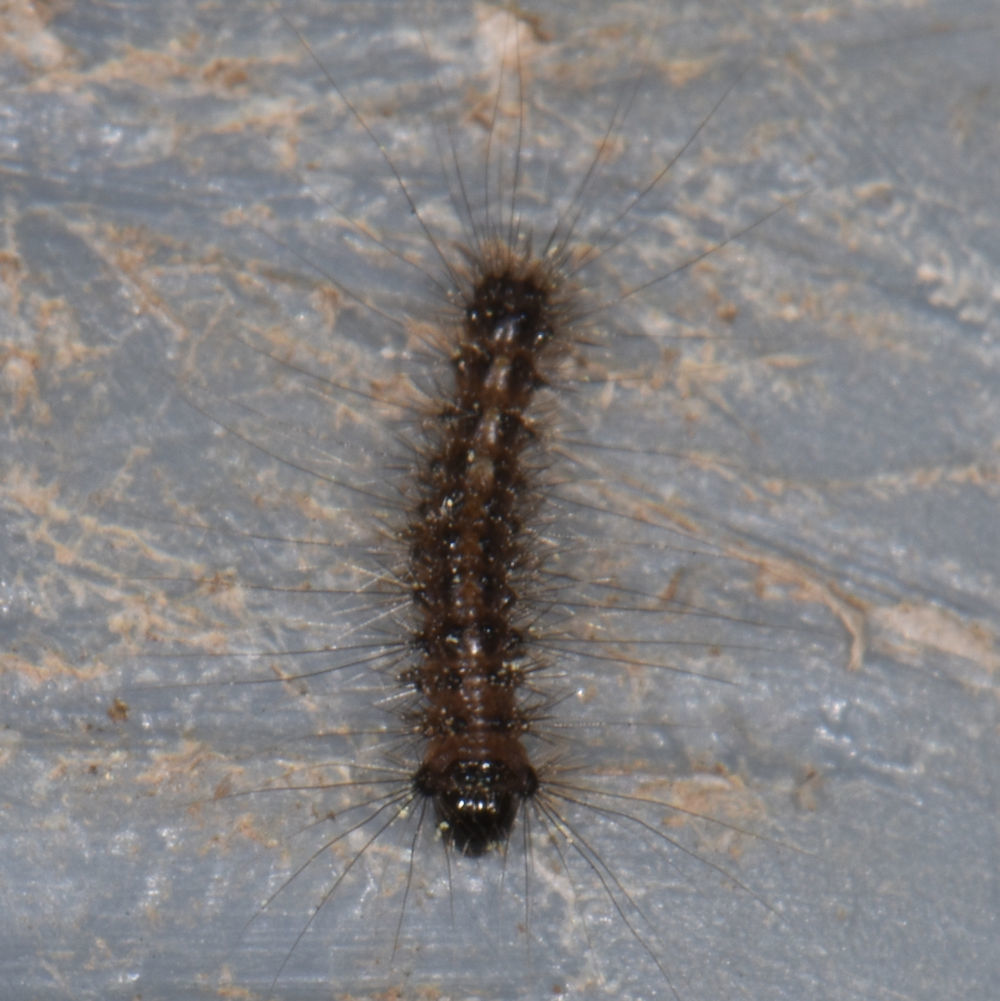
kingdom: Animalia
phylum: Arthropoda
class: Insecta
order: Lepidoptera
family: Erebidae
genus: Lymantria
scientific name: Lymantria dispar
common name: Gypsy moth
